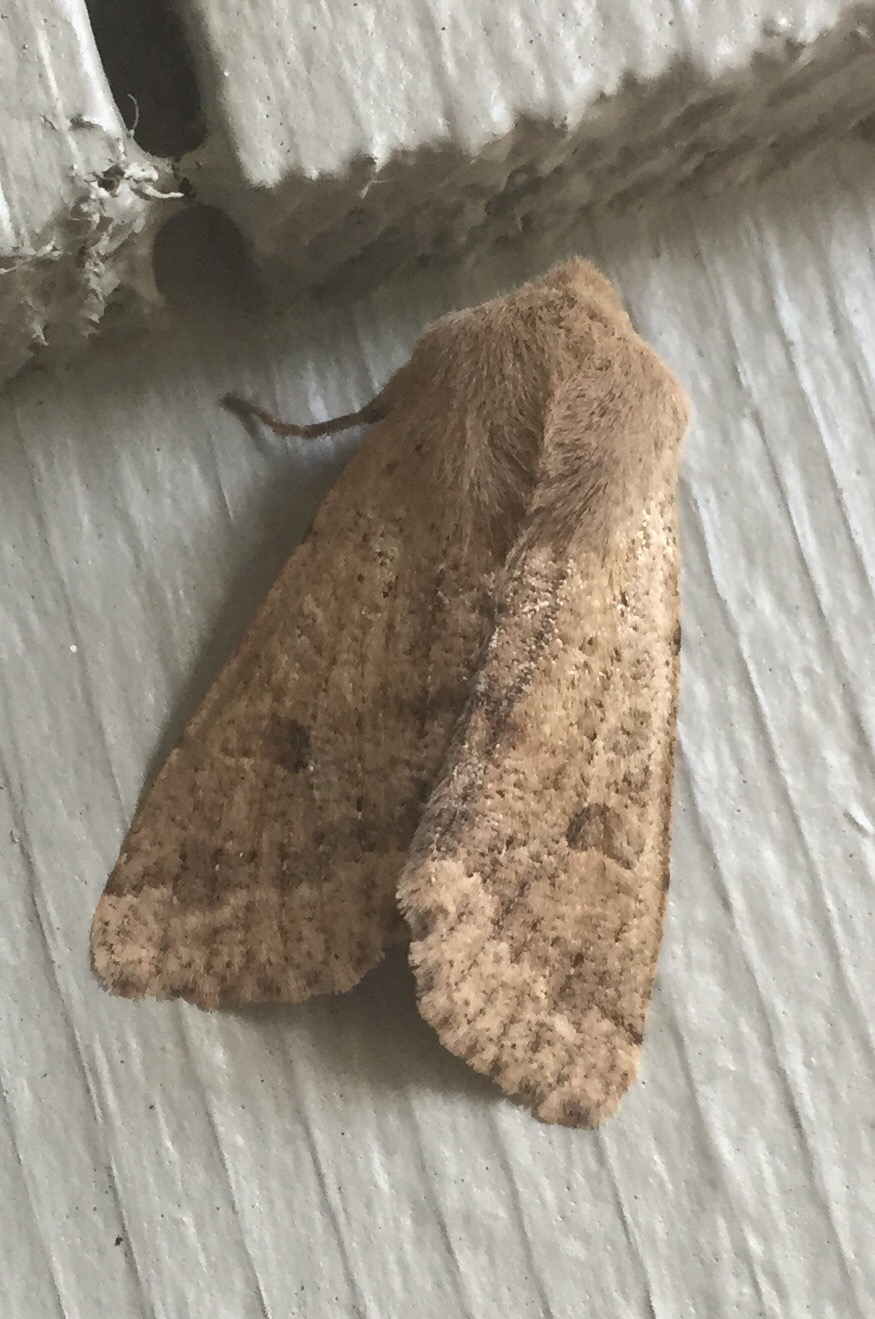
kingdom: Animalia
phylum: Arthropoda
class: Insecta
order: Lepidoptera
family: Noctuidae
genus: Orthosia
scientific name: Orthosia pacifica
